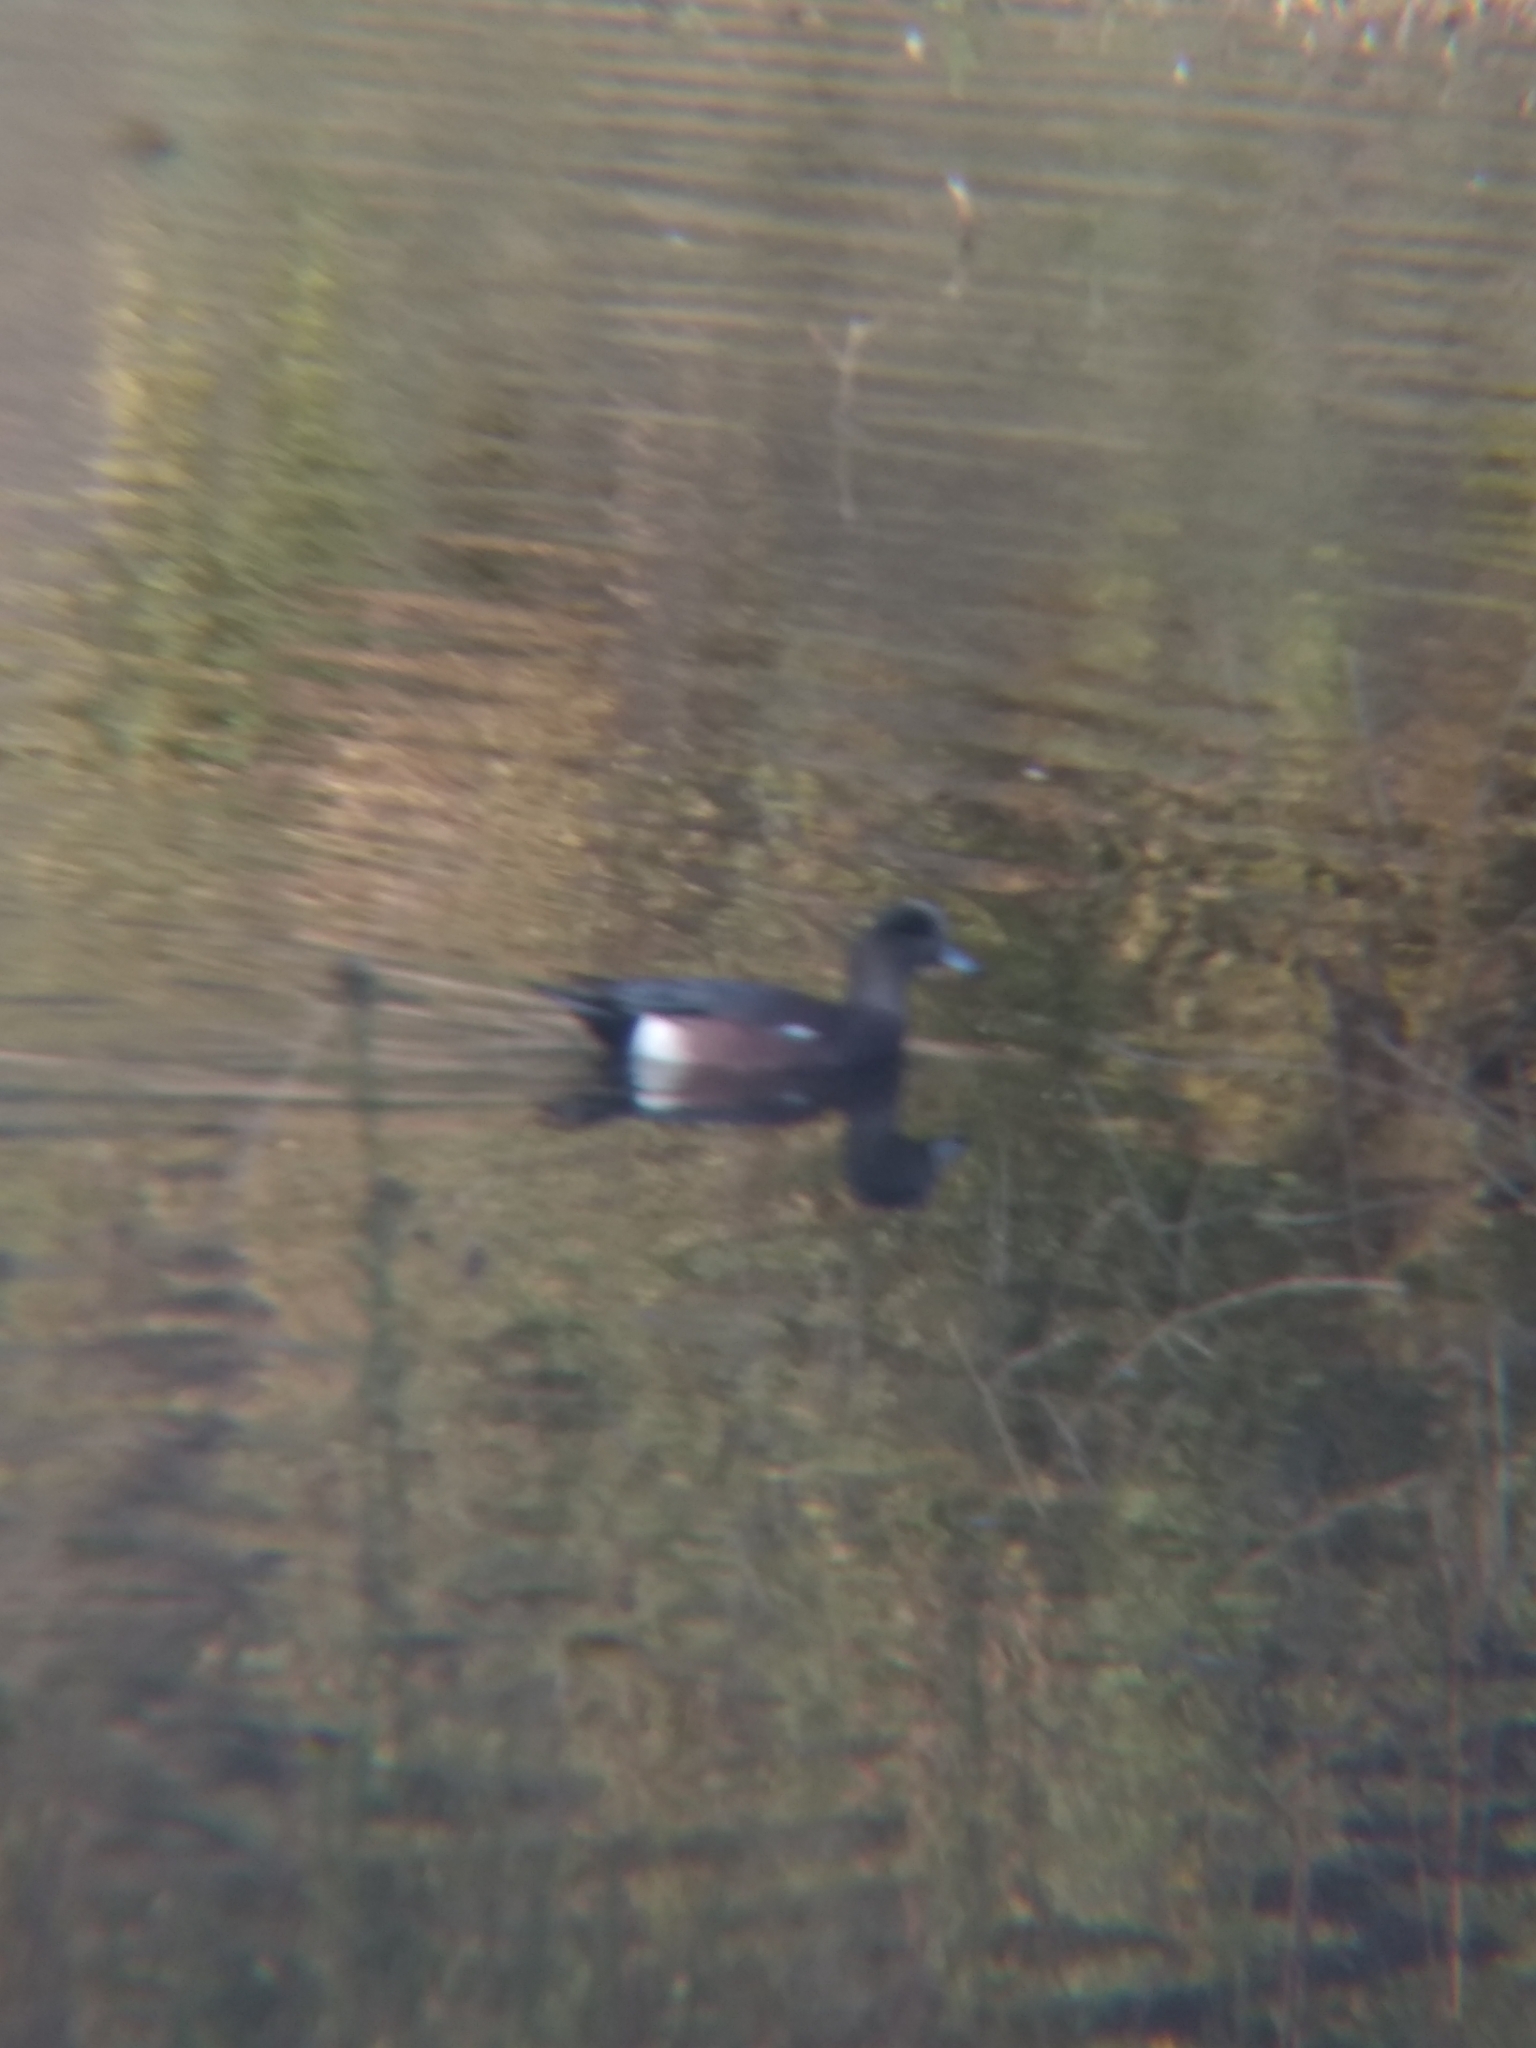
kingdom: Animalia
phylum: Chordata
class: Aves
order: Anseriformes
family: Anatidae
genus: Mareca
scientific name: Mareca americana
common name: American wigeon
